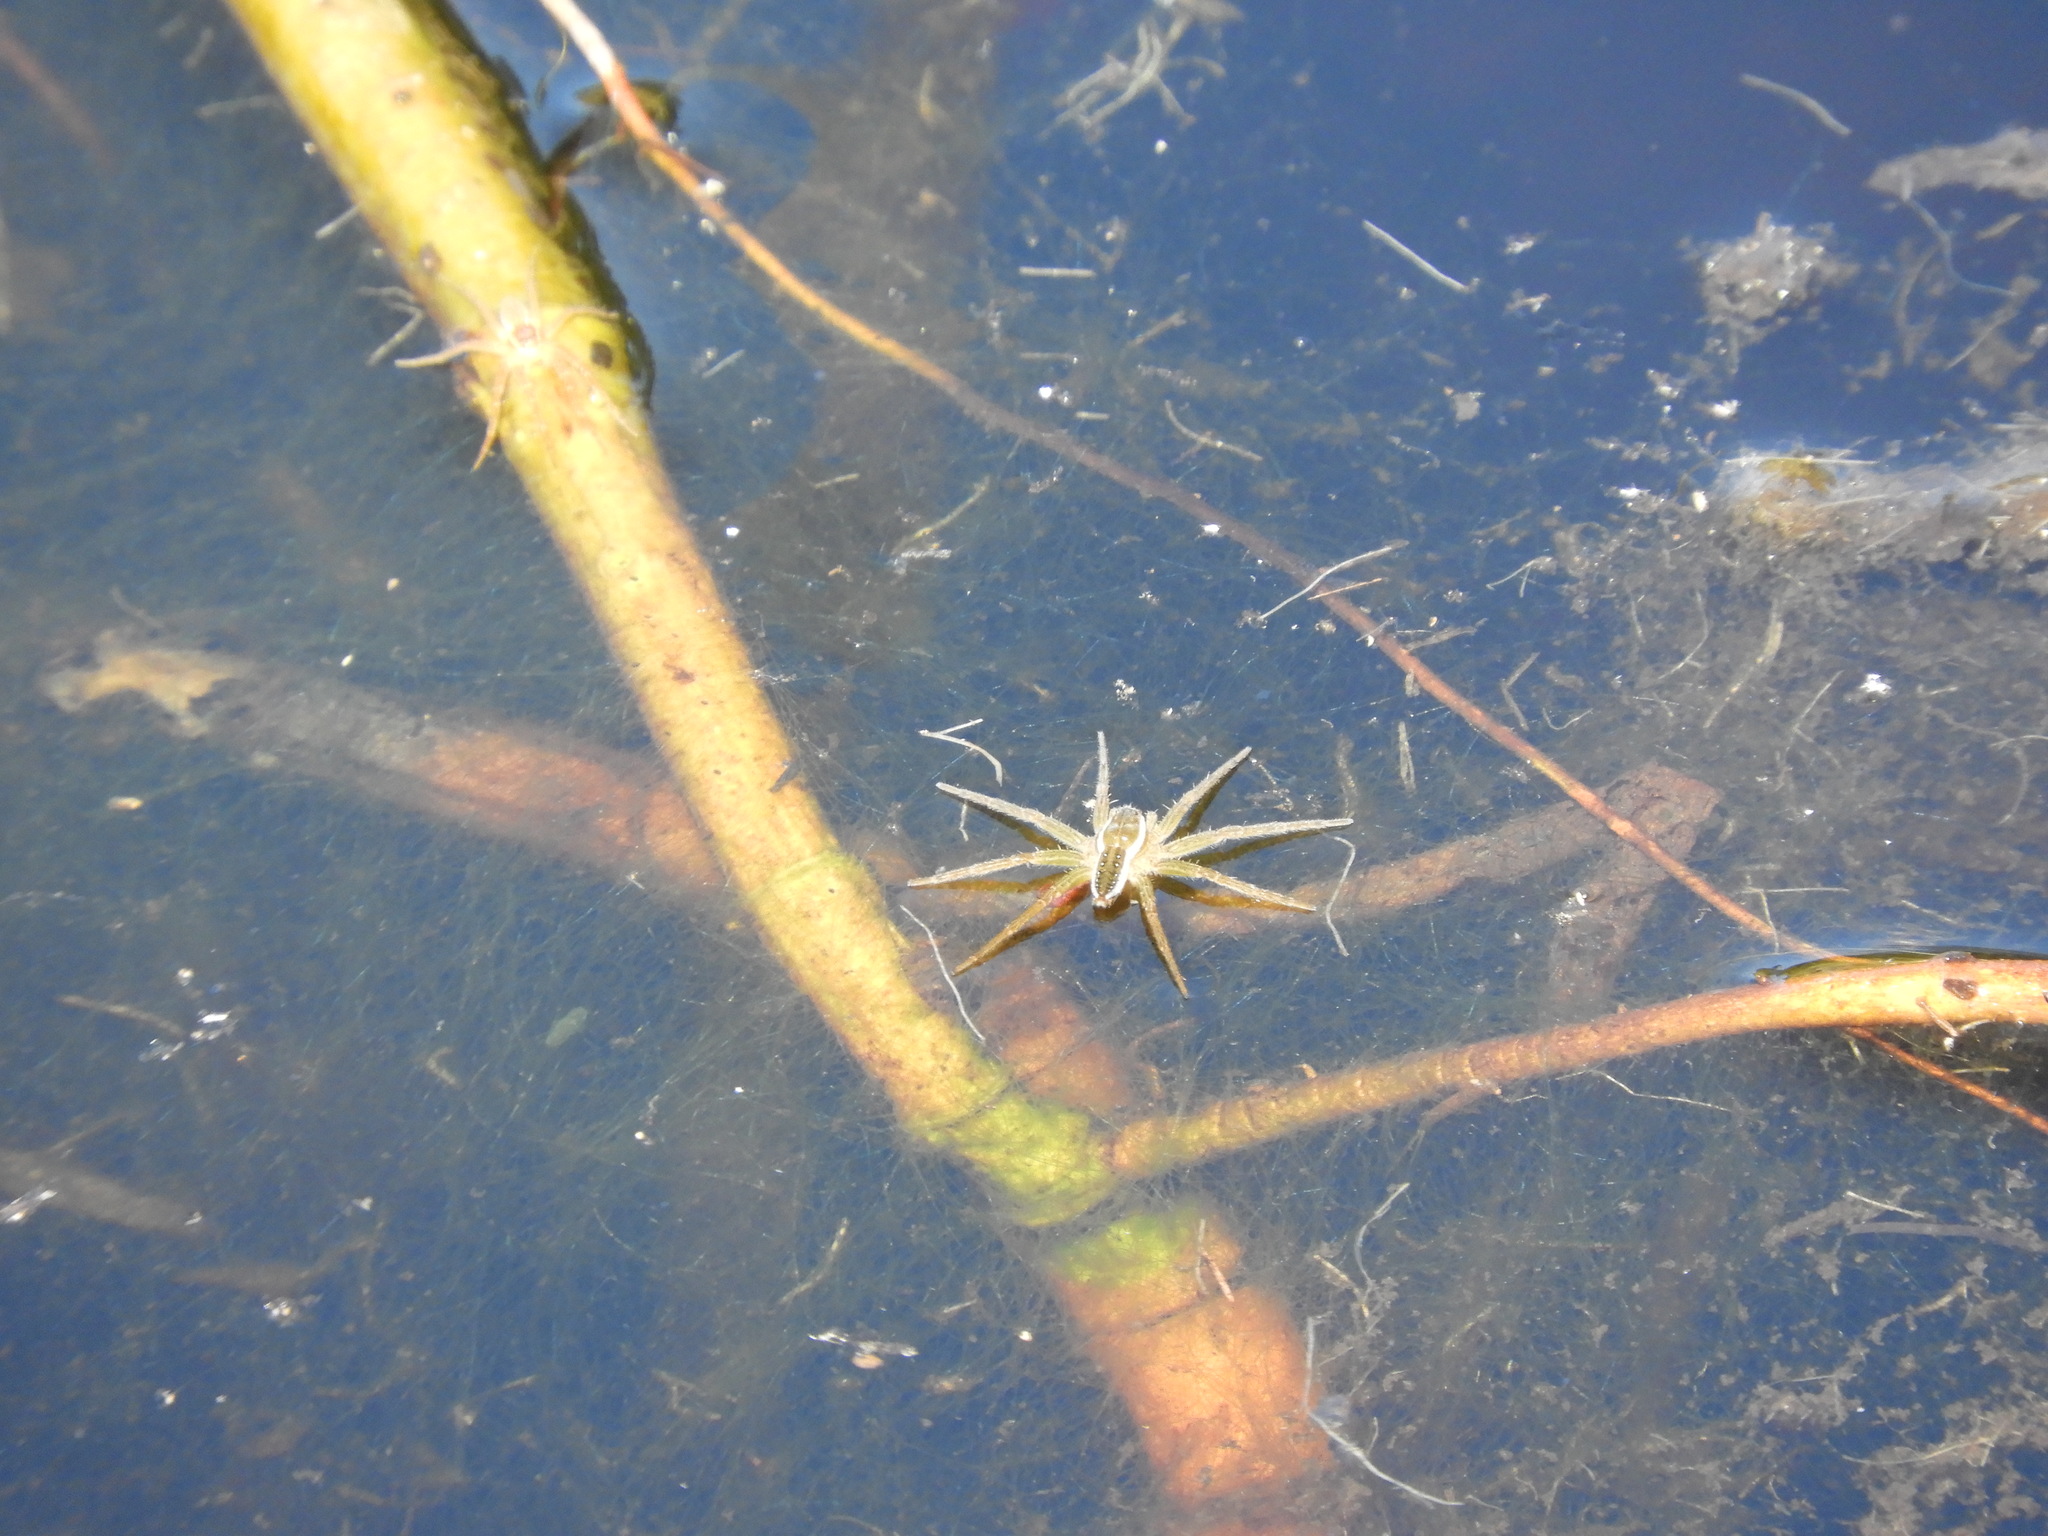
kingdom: Animalia
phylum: Arthropoda
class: Arachnida
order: Araneae
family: Pisauridae
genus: Dolomedes
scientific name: Dolomedes triton
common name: Six-spotted fishing spider
